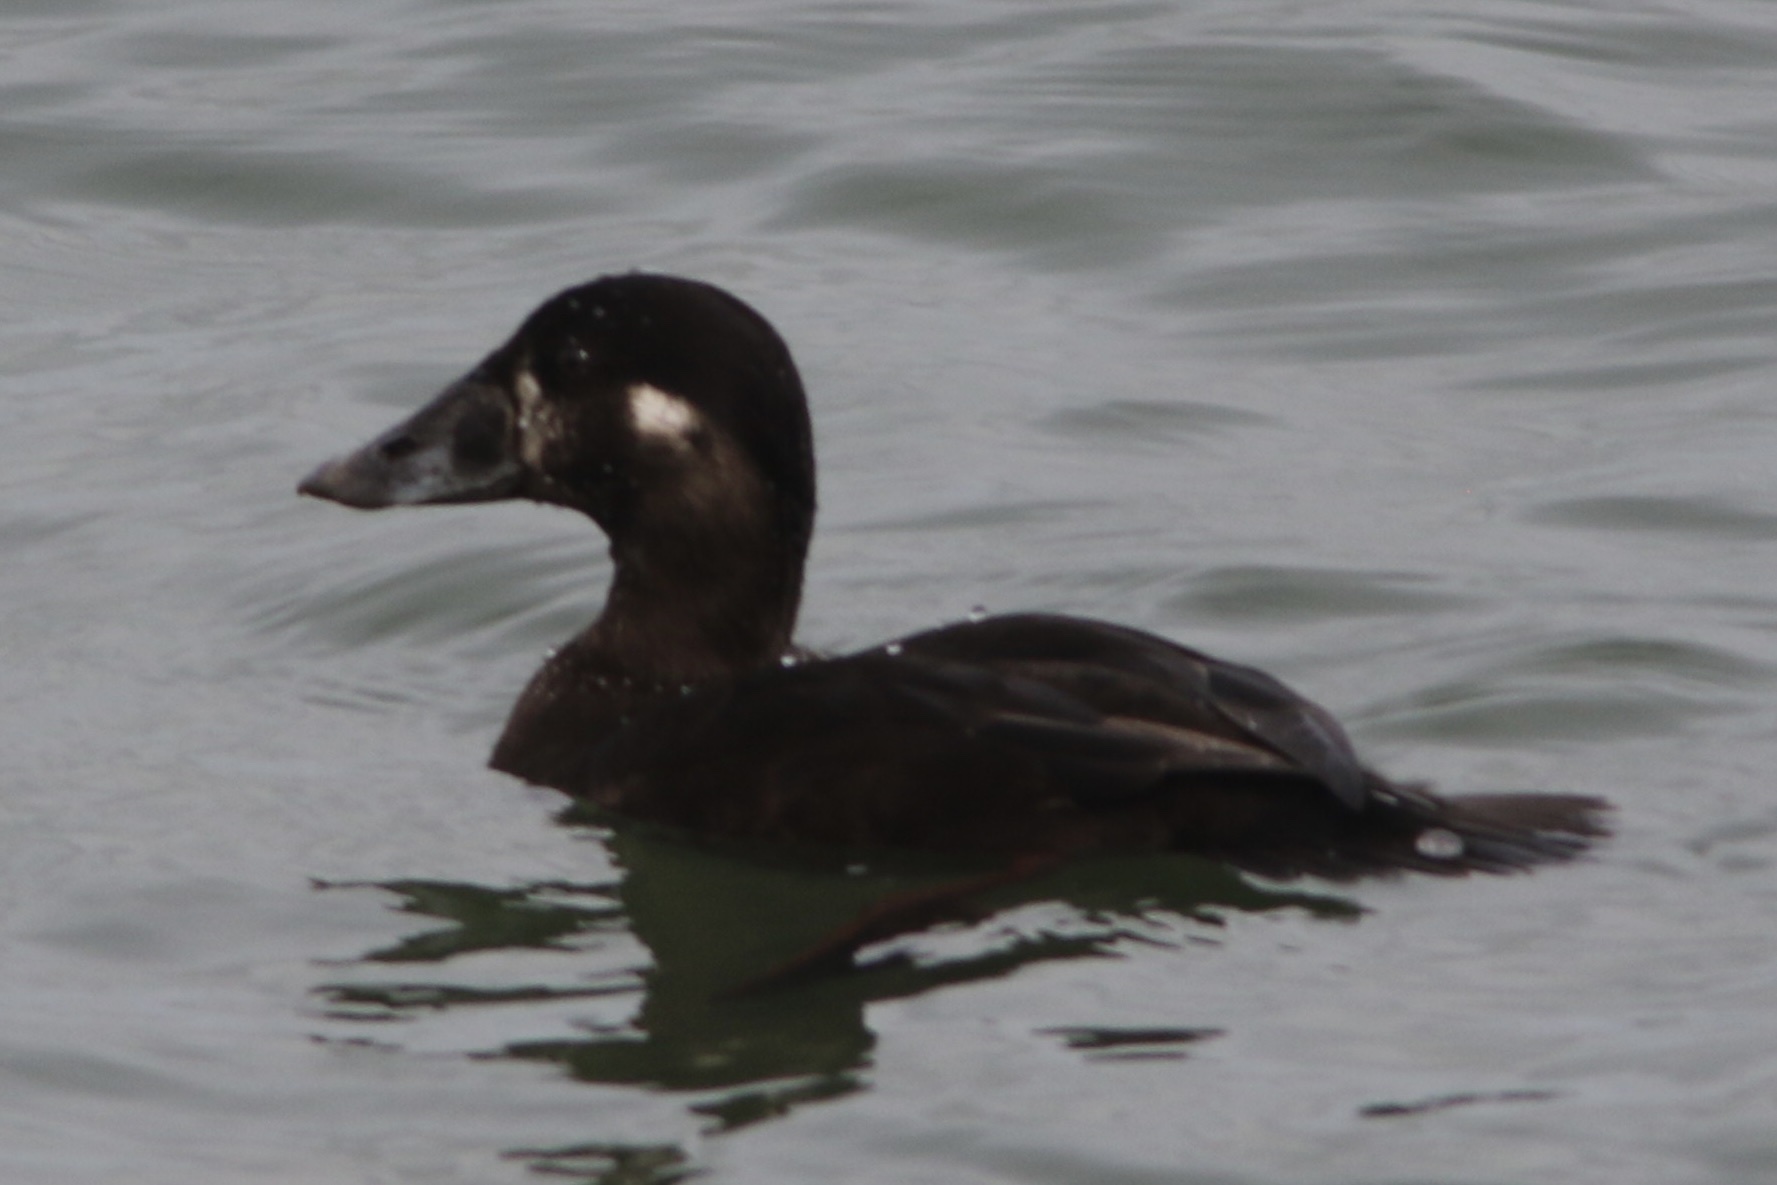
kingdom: Animalia
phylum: Chordata
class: Aves
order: Anseriformes
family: Anatidae
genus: Melanitta
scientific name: Melanitta perspicillata
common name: Surf scoter
